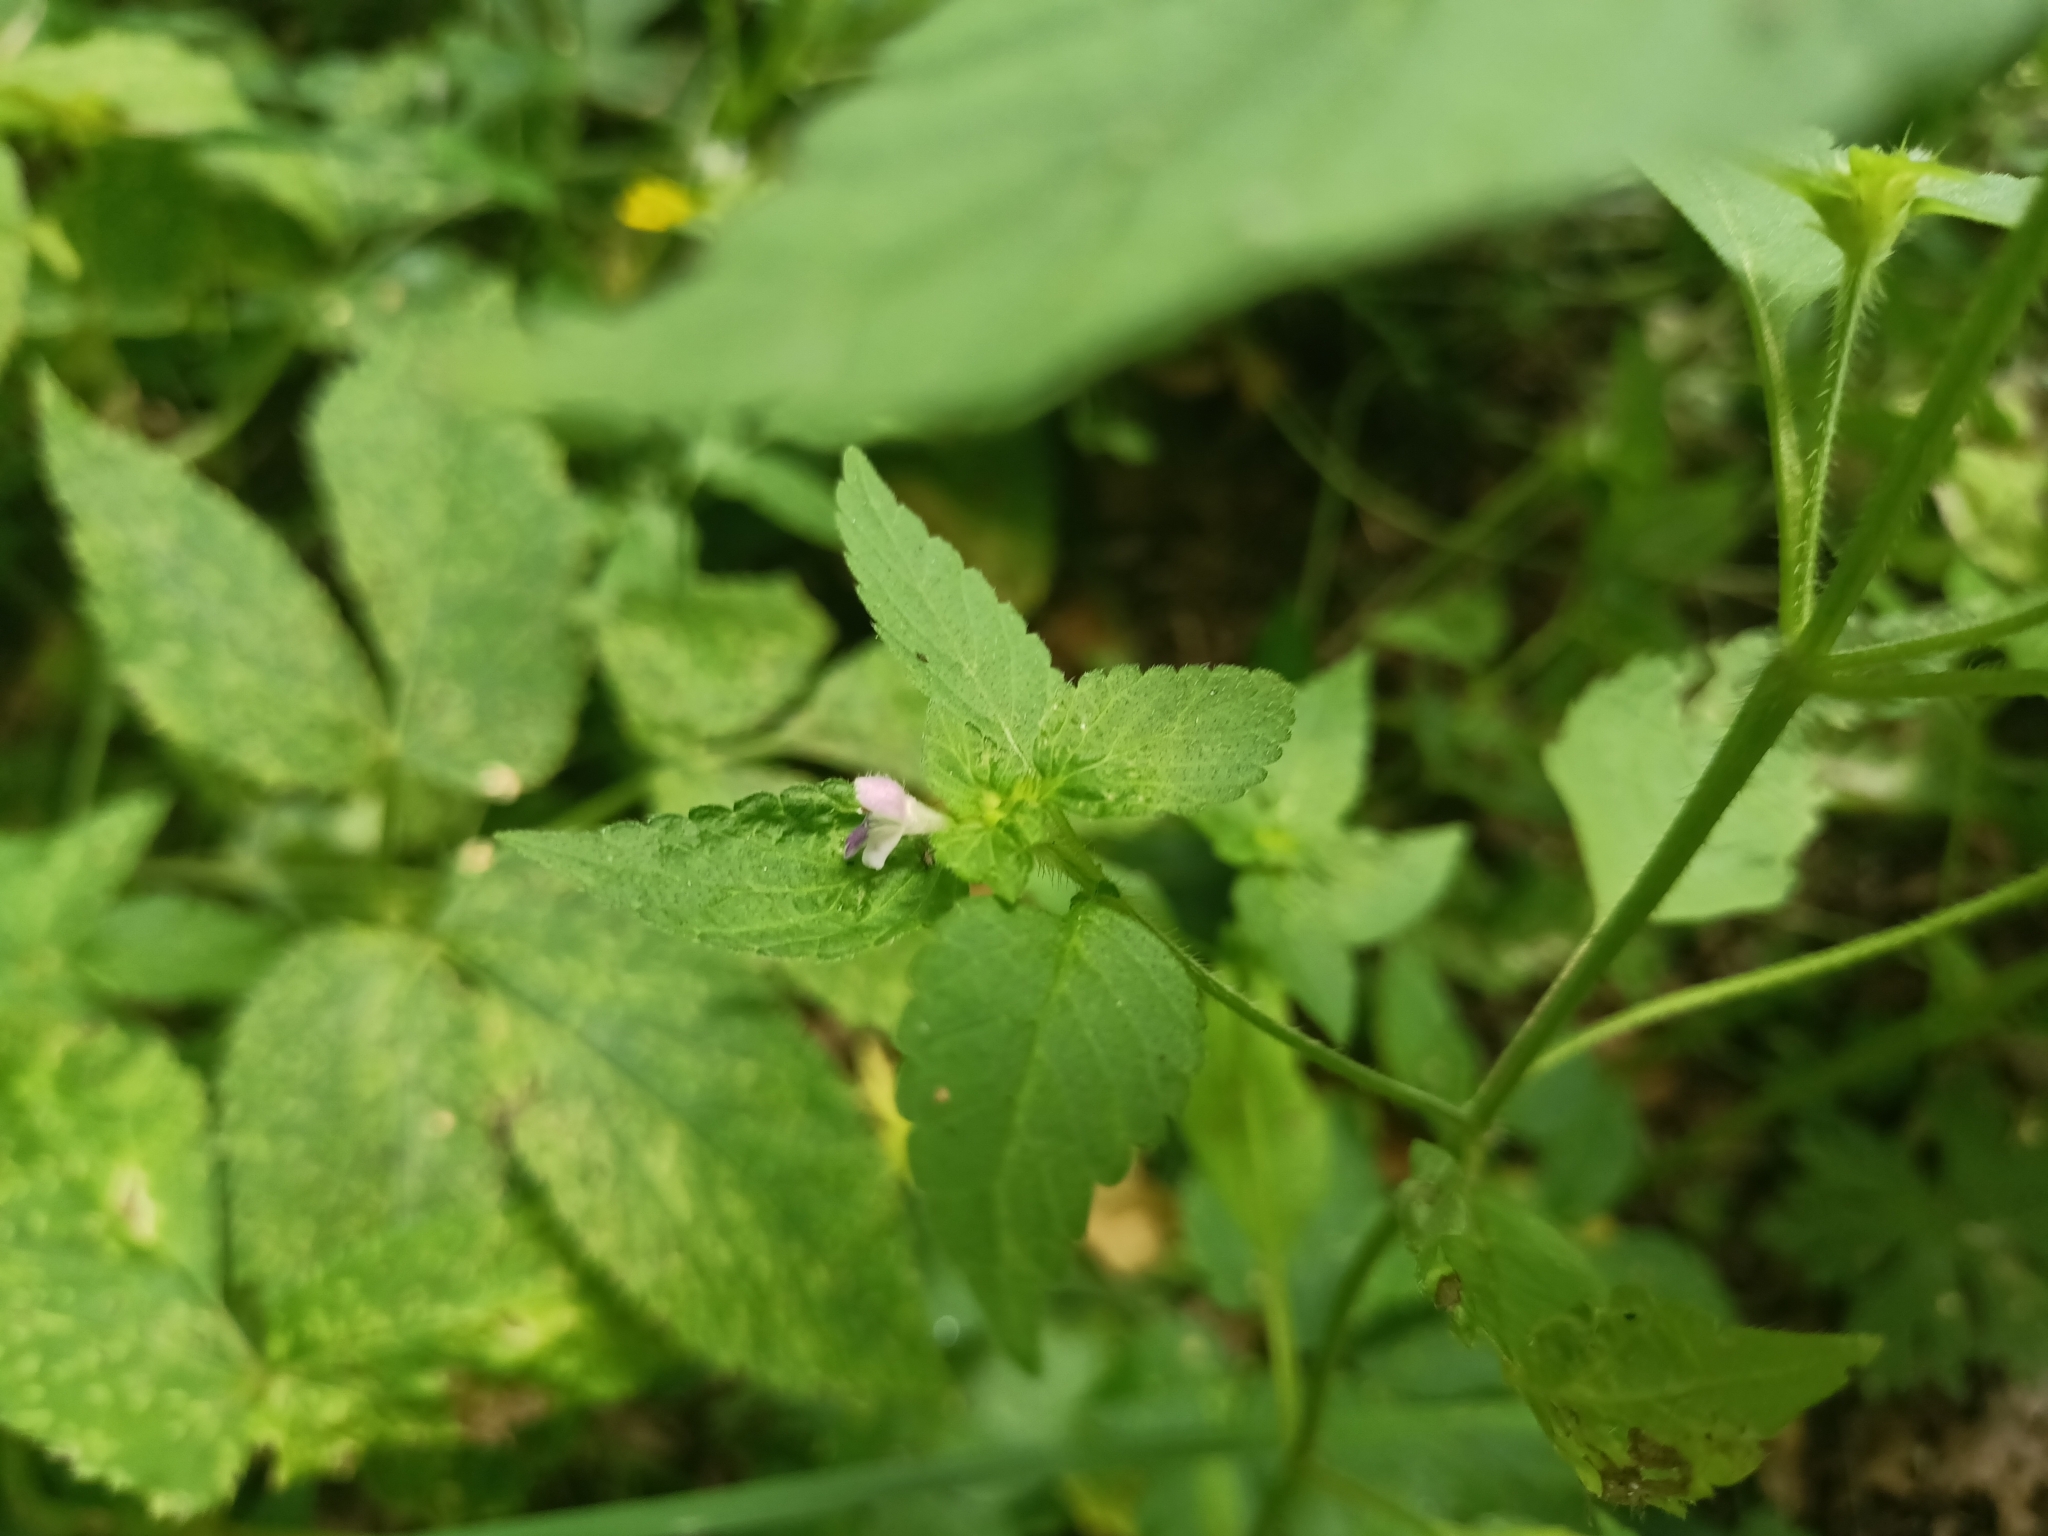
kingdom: Plantae
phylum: Tracheophyta
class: Magnoliopsida
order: Lamiales
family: Lamiaceae
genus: Galeopsis
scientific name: Galeopsis bifida
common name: Bifid hemp-nettle
